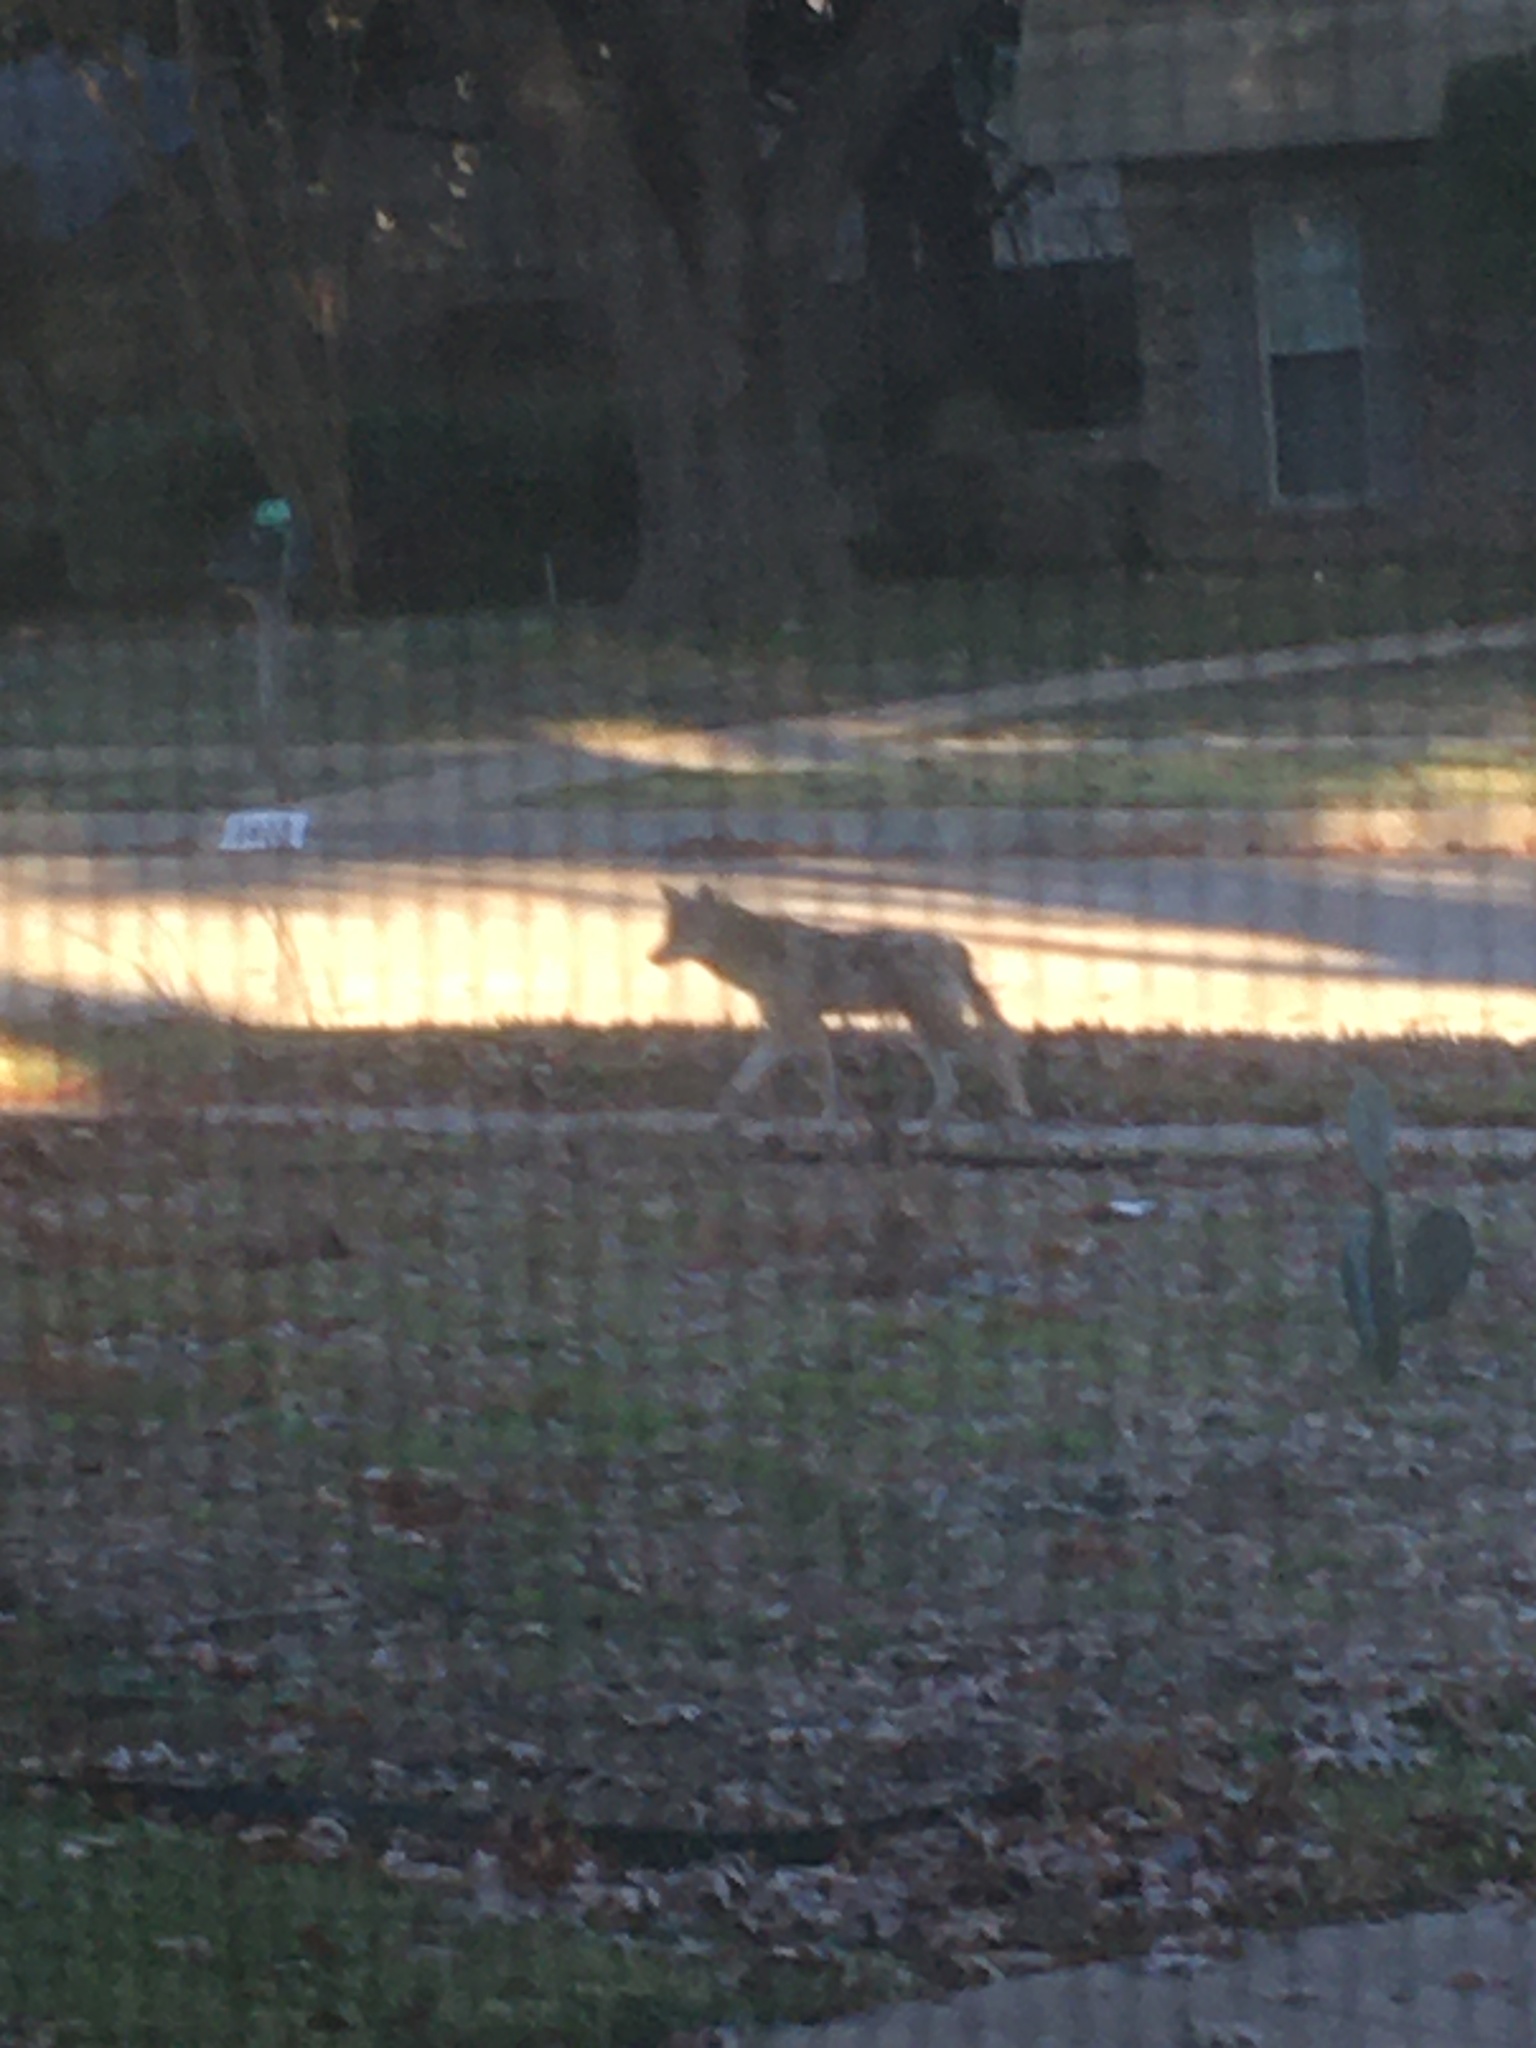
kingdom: Animalia
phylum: Chordata
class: Mammalia
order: Carnivora
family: Canidae
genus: Canis
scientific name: Canis latrans
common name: Coyote
